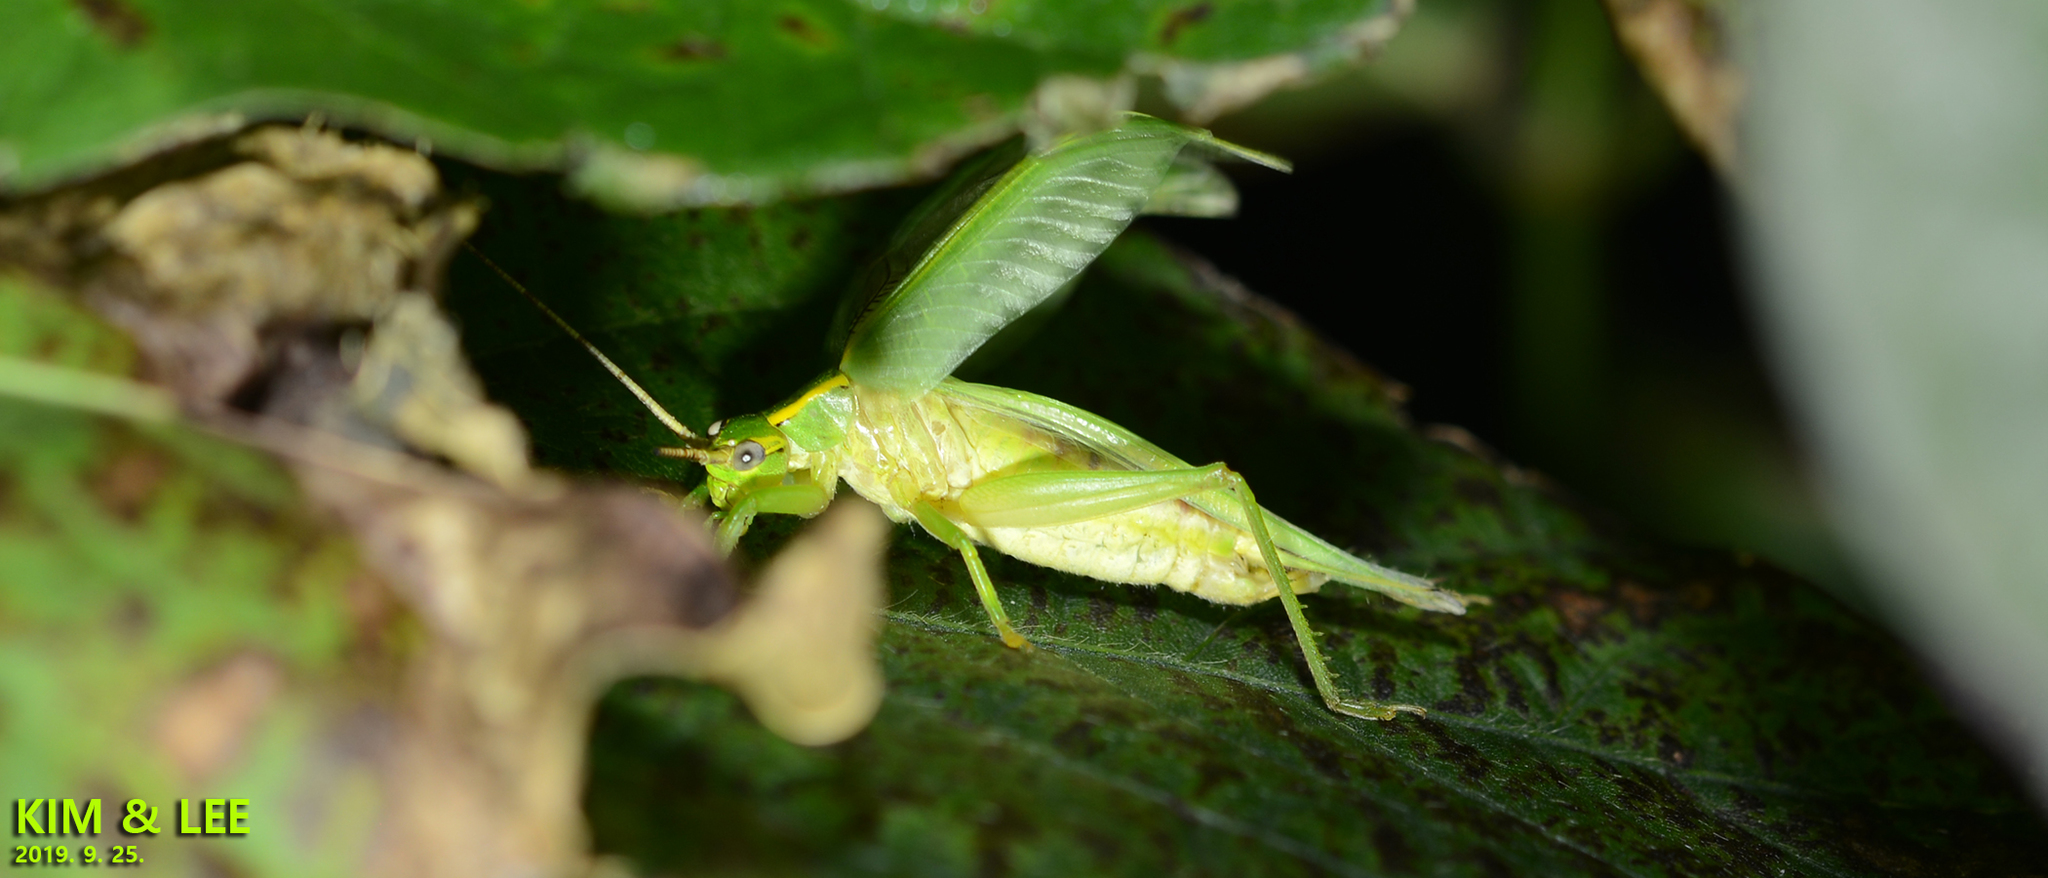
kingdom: Animalia
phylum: Arthropoda
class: Insecta
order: Orthoptera
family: Gryllidae
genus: Truljalia
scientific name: Truljalia hibinonis
